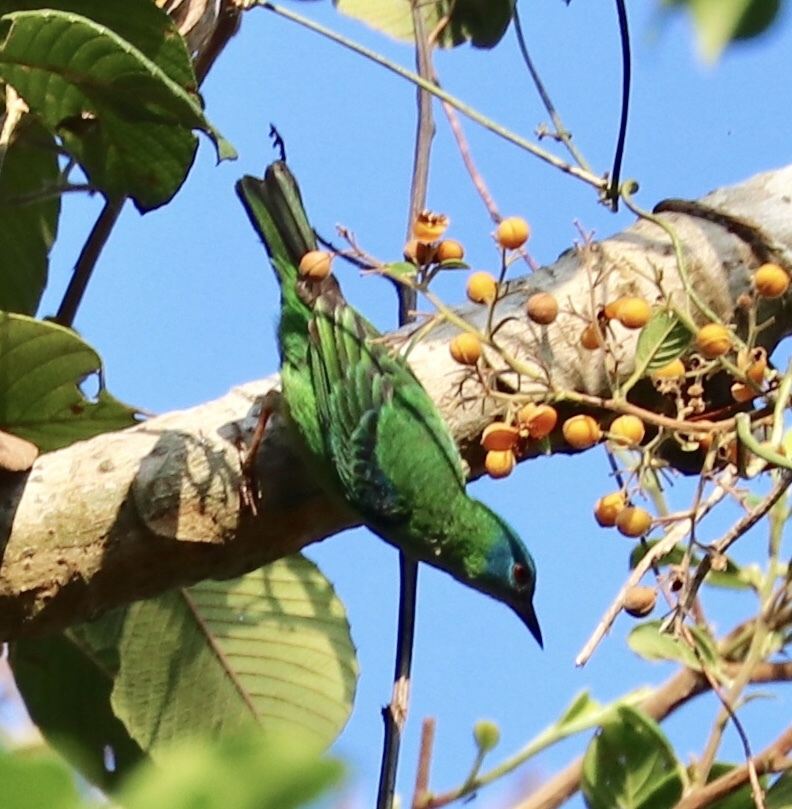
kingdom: Animalia
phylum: Chordata
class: Aves
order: Passeriformes
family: Thraupidae
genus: Dacnis
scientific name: Dacnis cayana
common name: Blue dacnis
